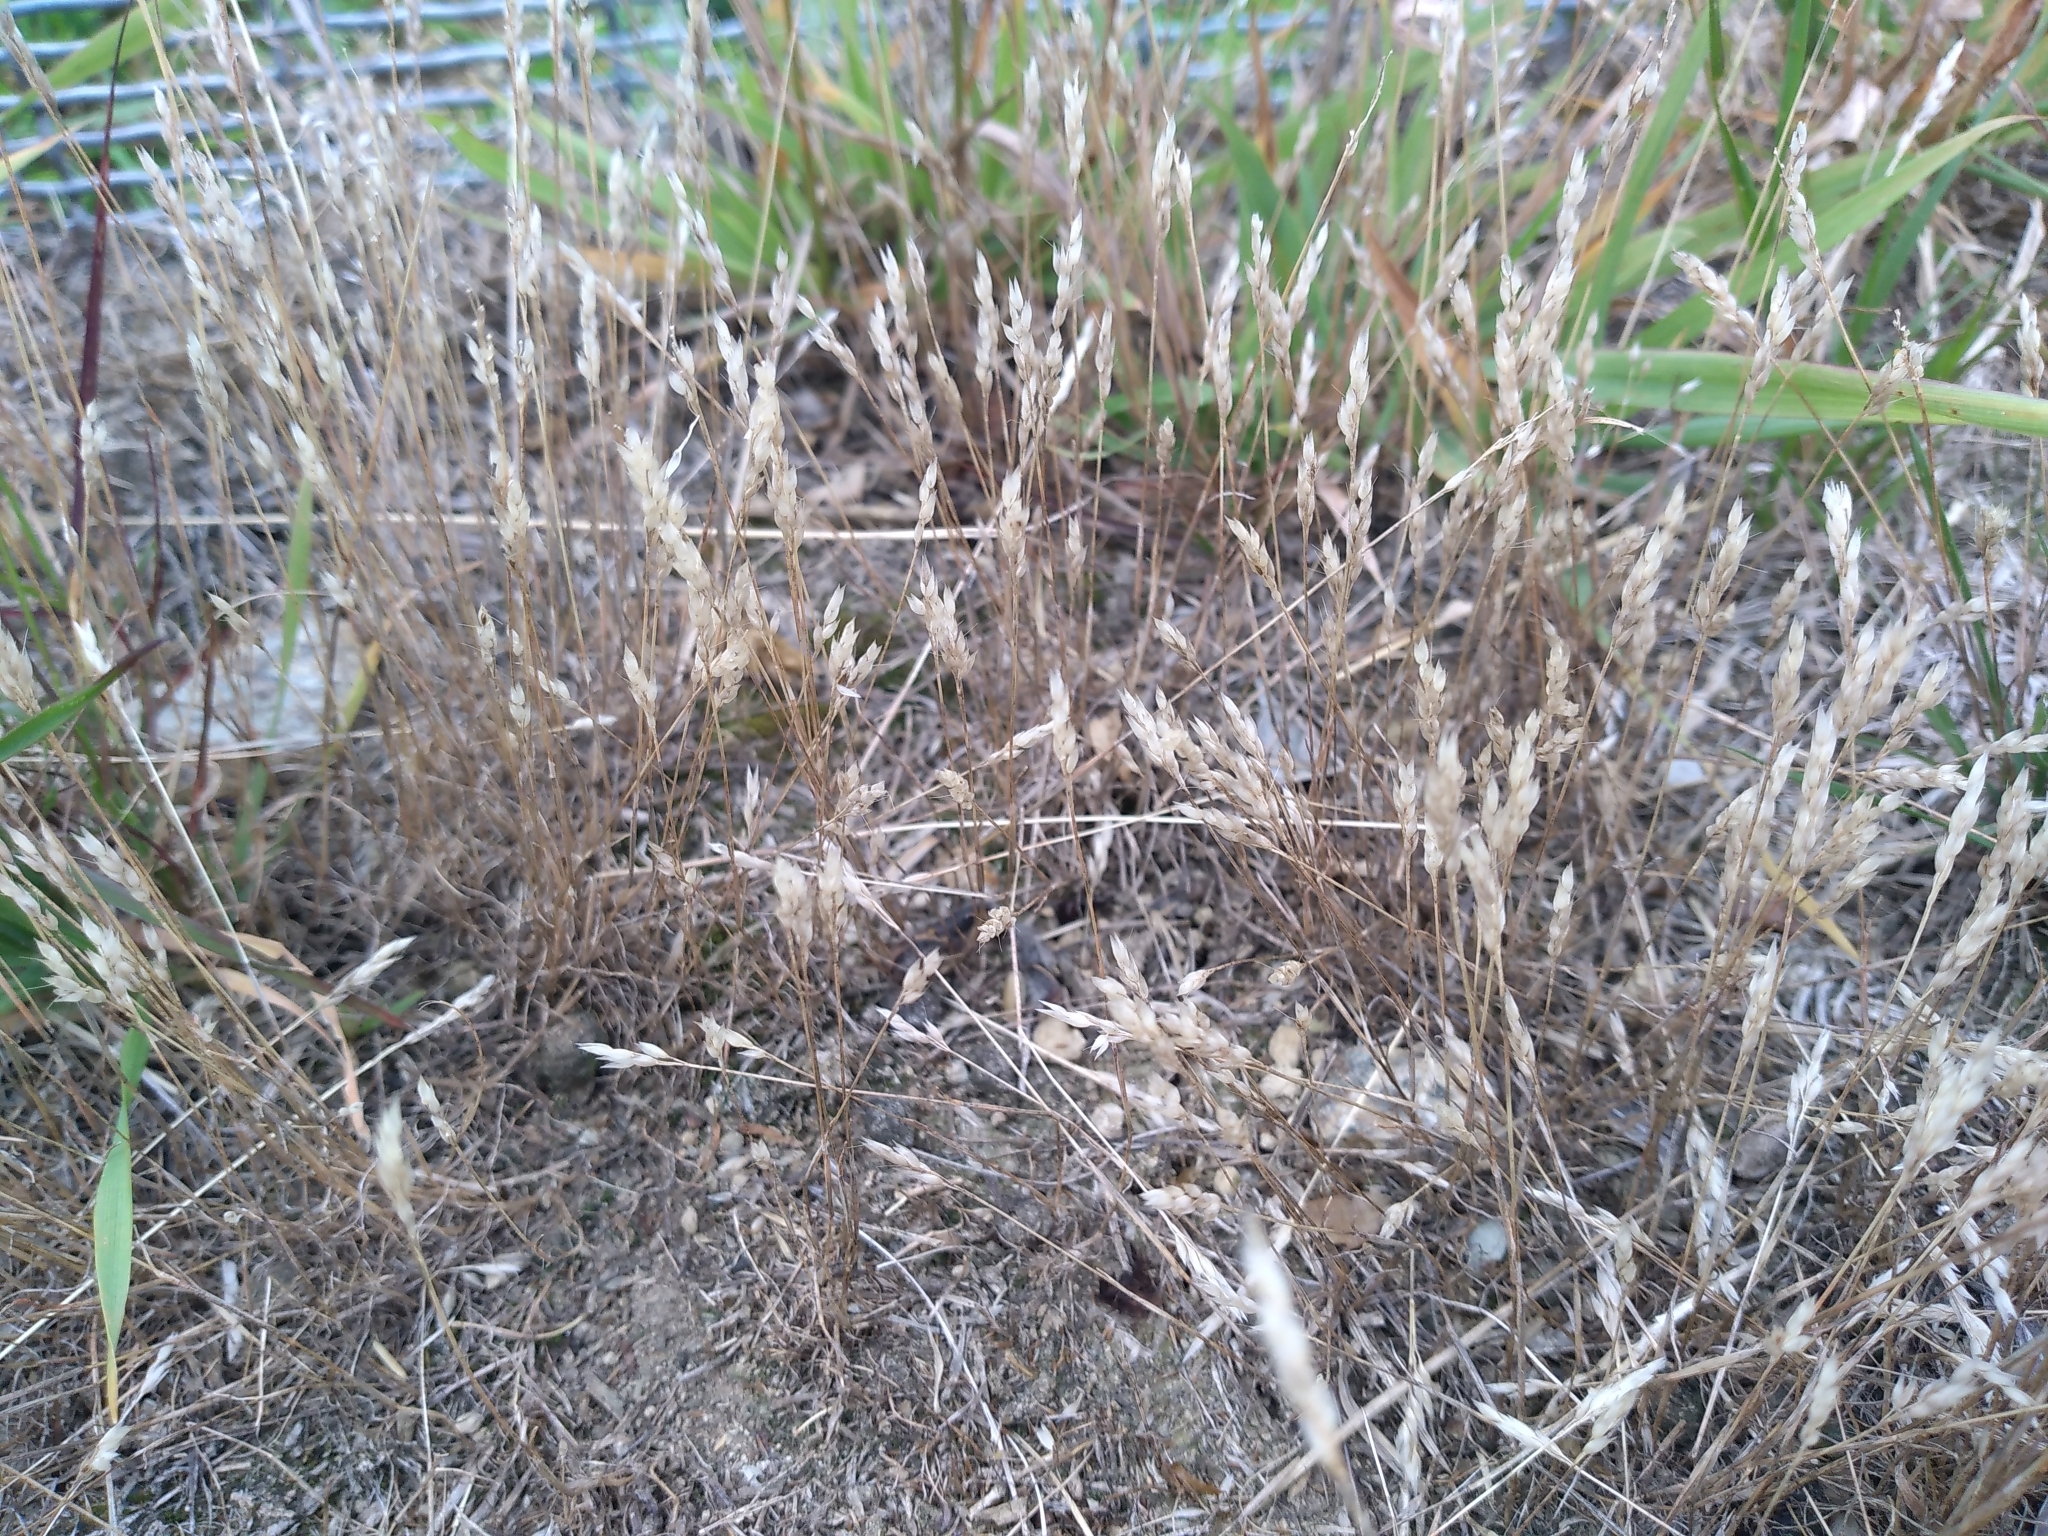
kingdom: Plantae
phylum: Tracheophyta
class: Liliopsida
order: Poales
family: Poaceae
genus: Aira
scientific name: Aira praecox
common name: Early hair-grass
